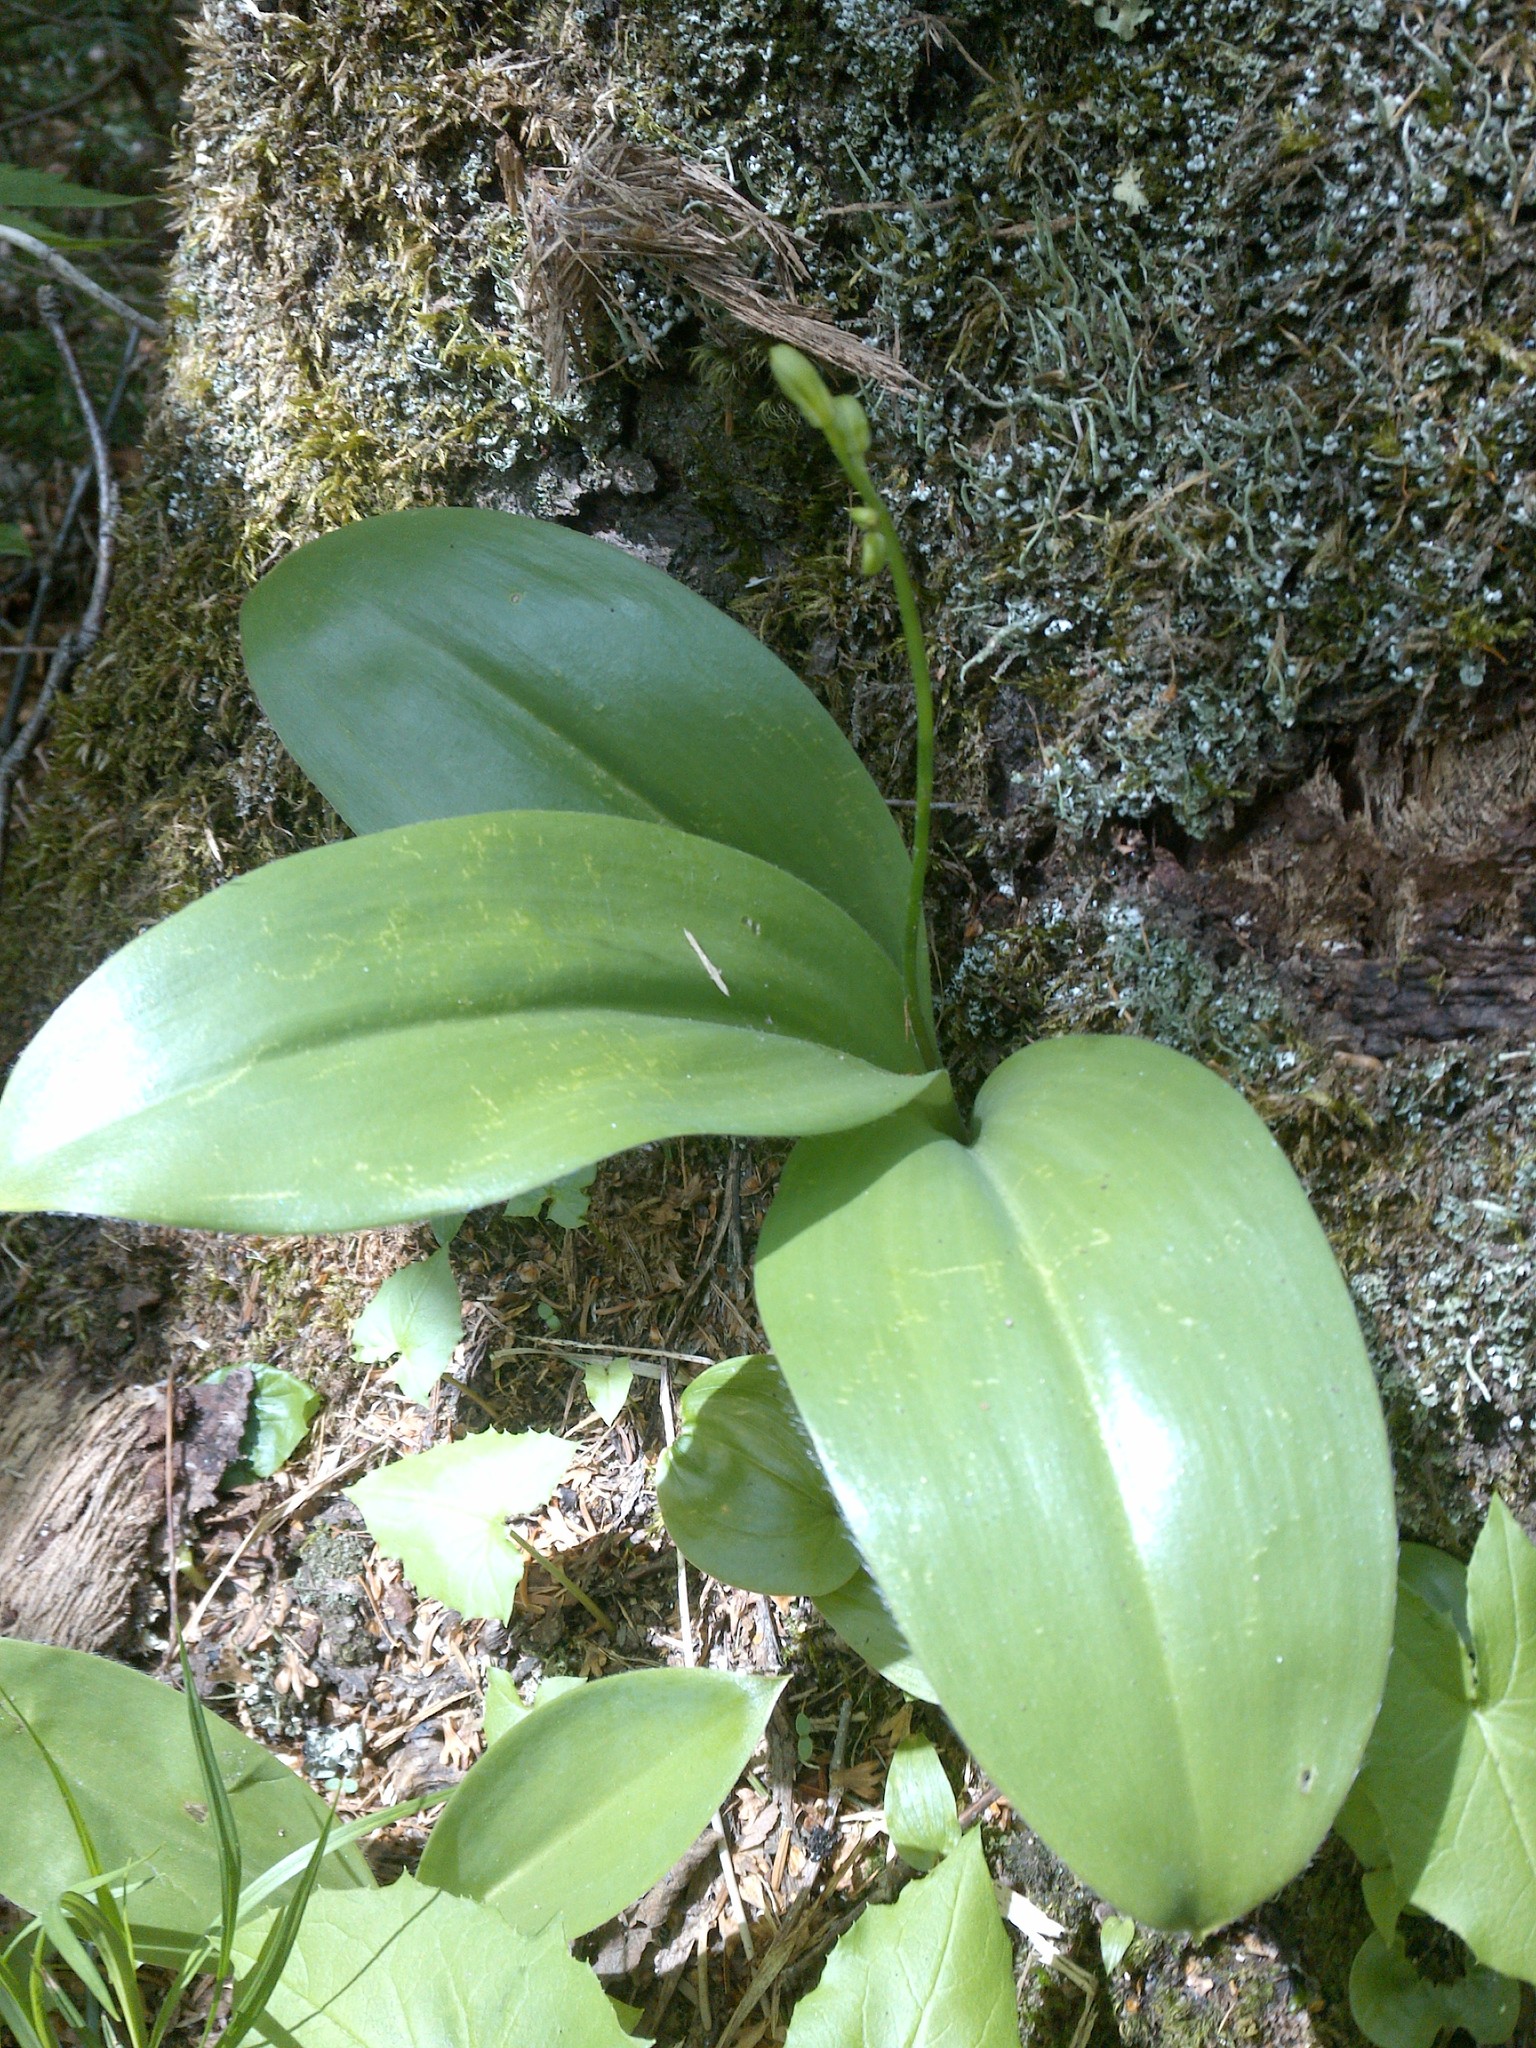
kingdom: Plantae
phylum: Tracheophyta
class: Liliopsida
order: Liliales
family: Liliaceae
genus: Clintonia
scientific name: Clintonia borealis
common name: Yellow clintonia
